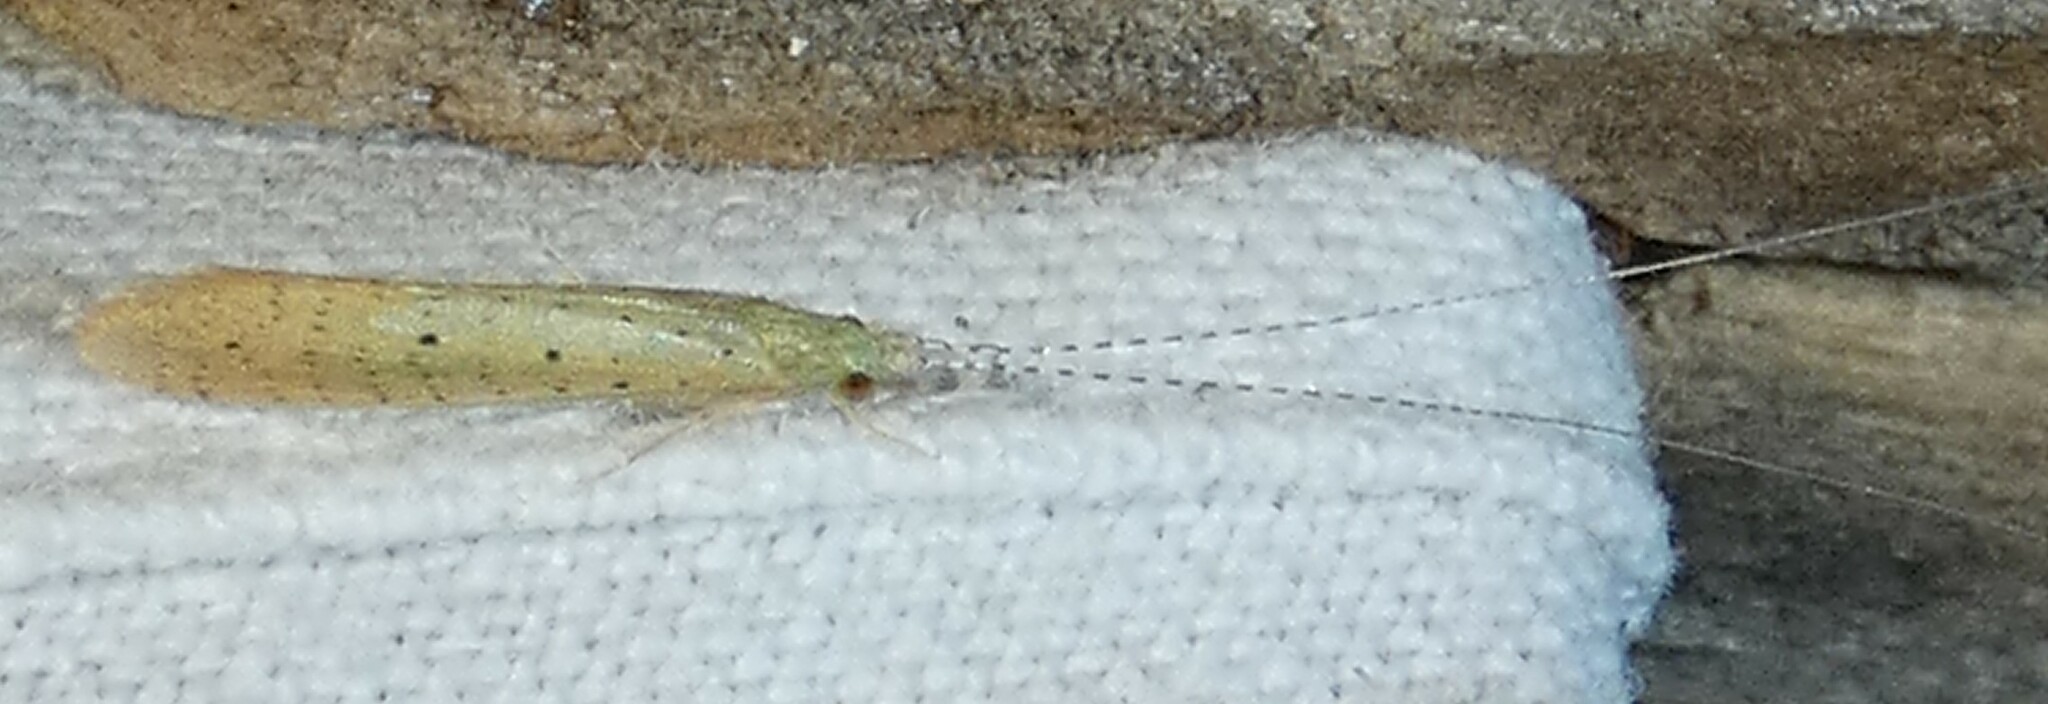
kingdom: Animalia
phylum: Arthropoda
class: Insecta
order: Trichoptera
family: Leptoceridae
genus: Nectopsyche
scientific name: Nectopsyche pavida
